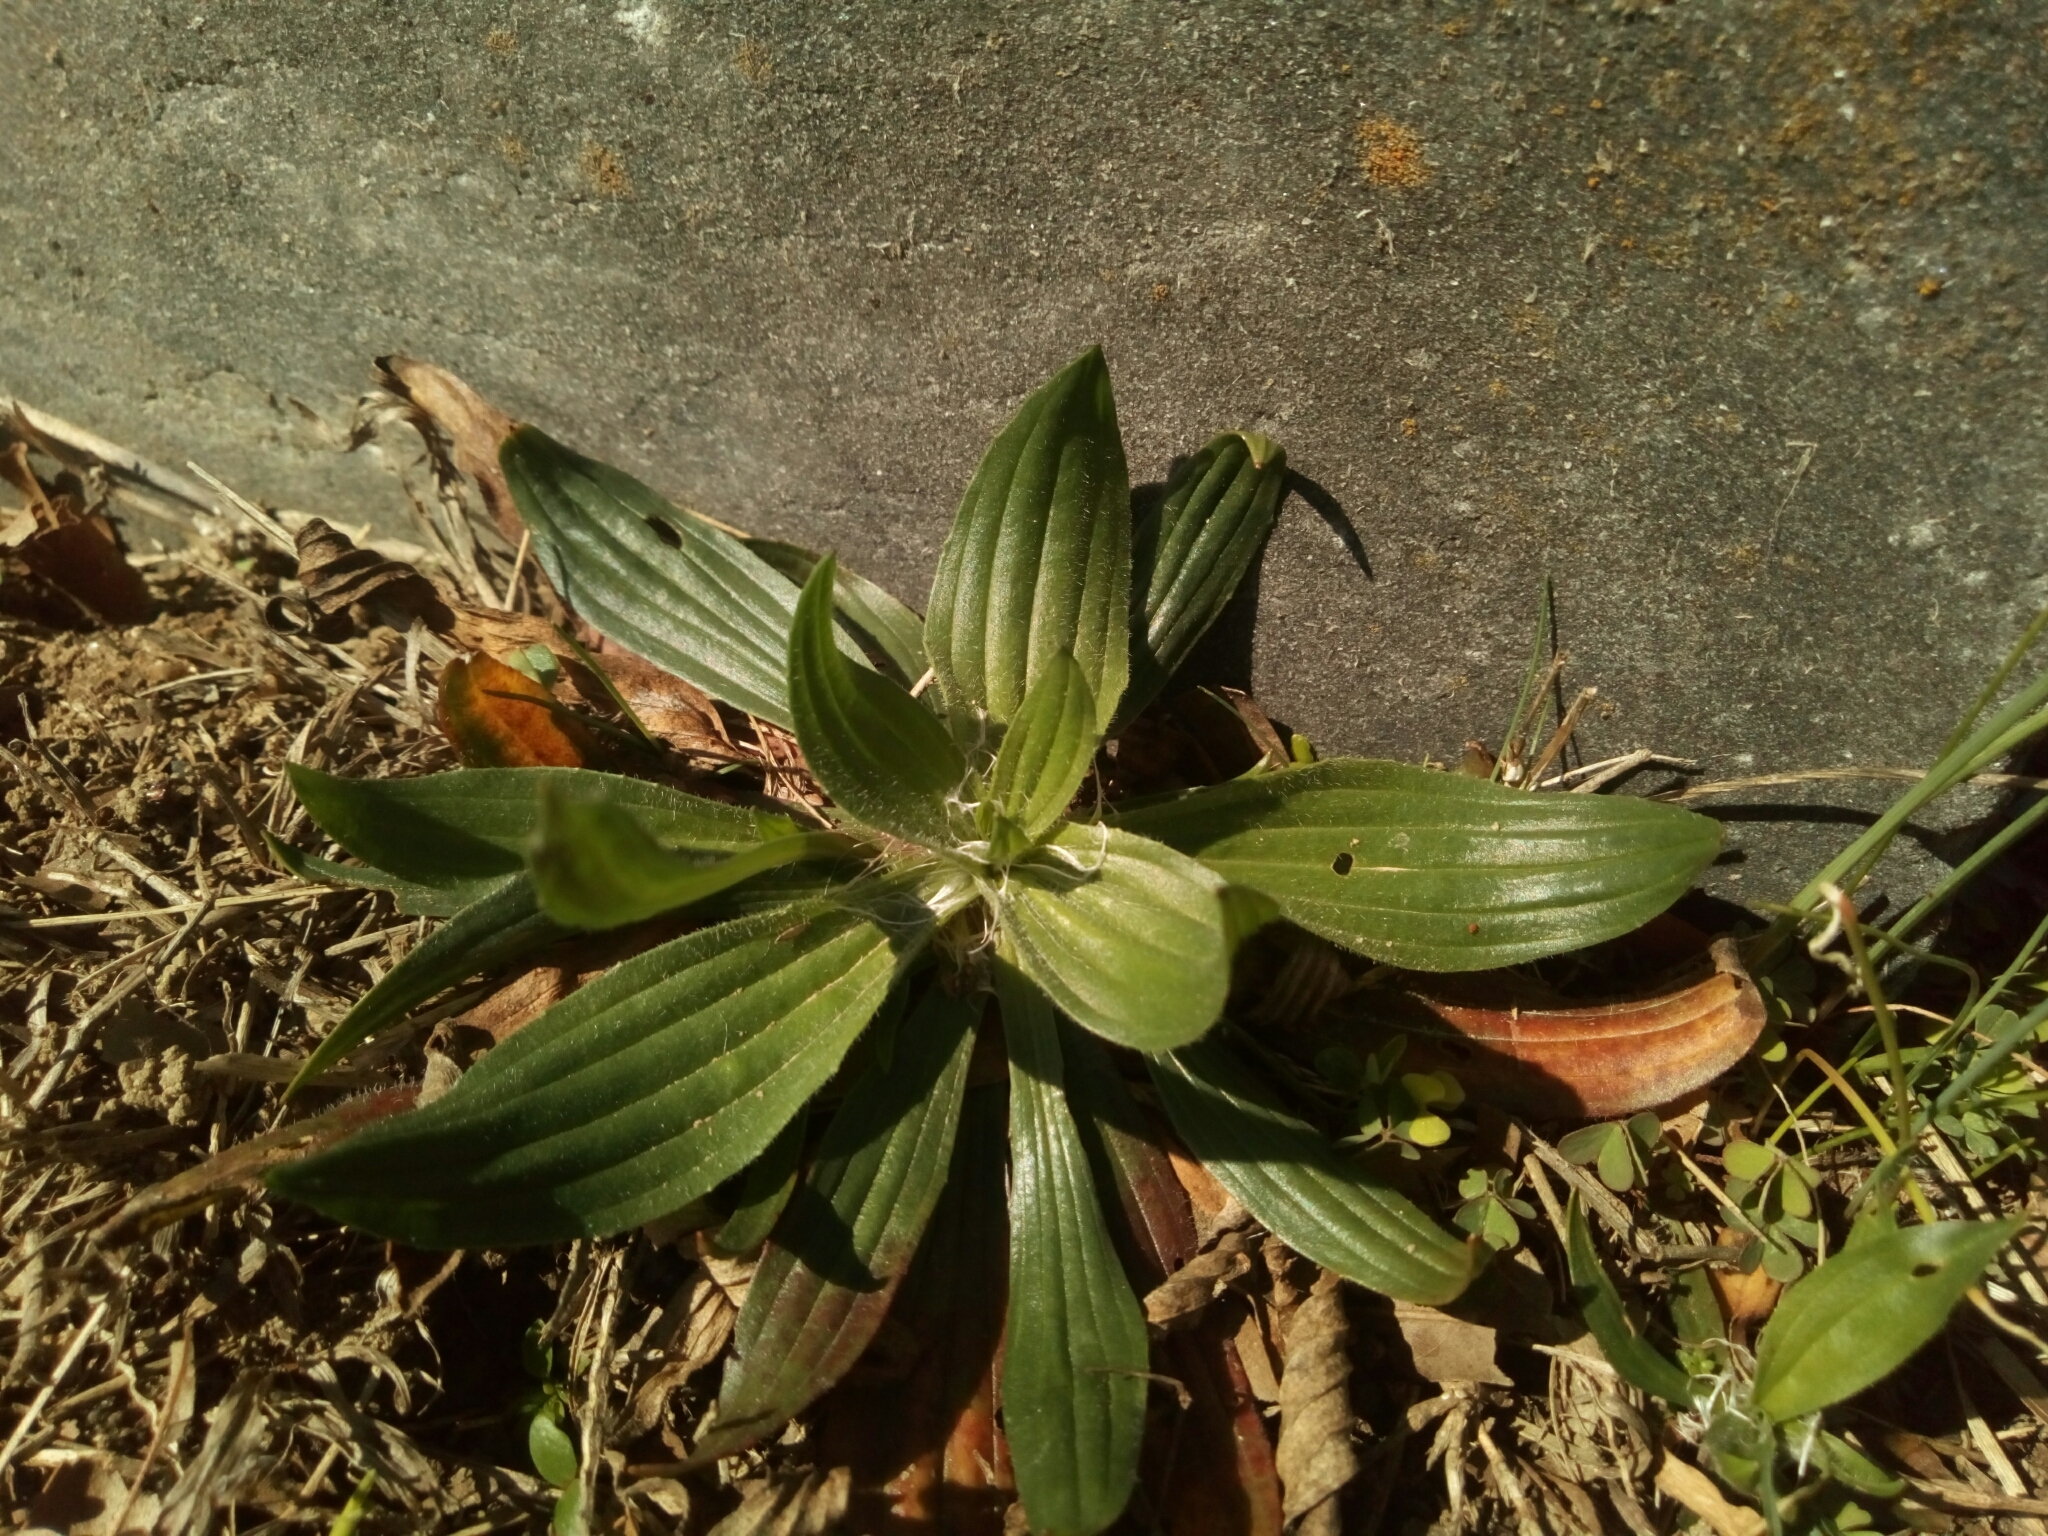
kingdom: Plantae
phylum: Tracheophyta
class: Magnoliopsida
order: Lamiales
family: Plantaginaceae
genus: Plantago
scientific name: Plantago lanceolata
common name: Ribwort plantain
